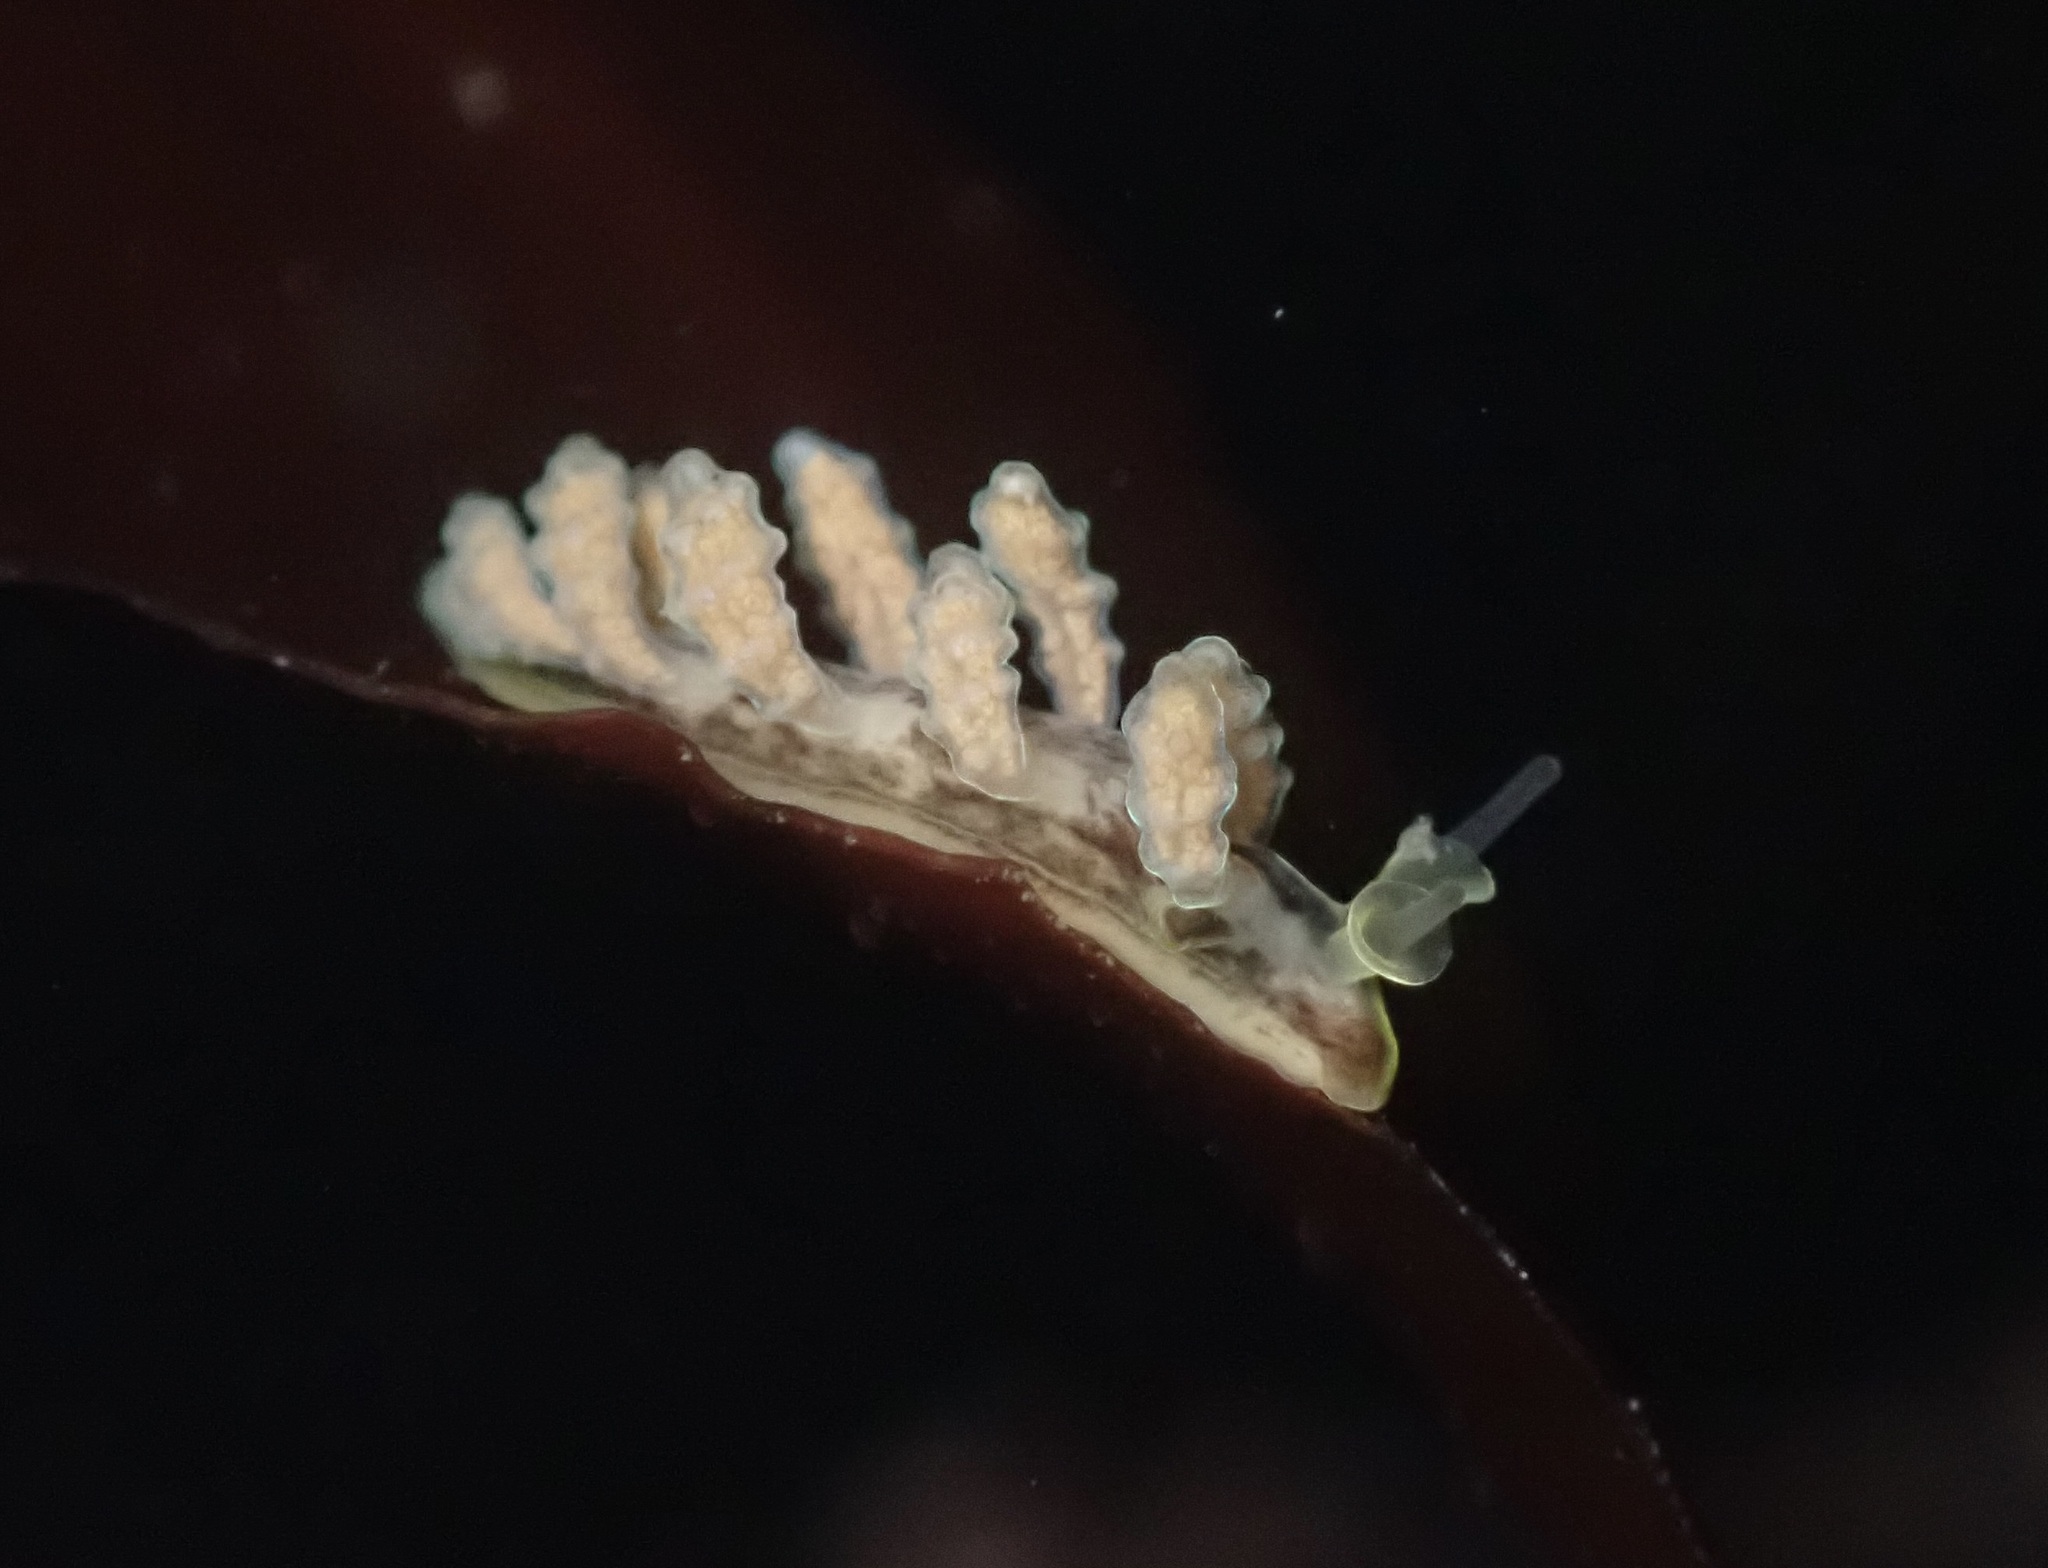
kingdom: Animalia
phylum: Mollusca
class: Gastropoda
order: Nudibranchia
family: Dotidae
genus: Doto
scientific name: Doto columbiana
